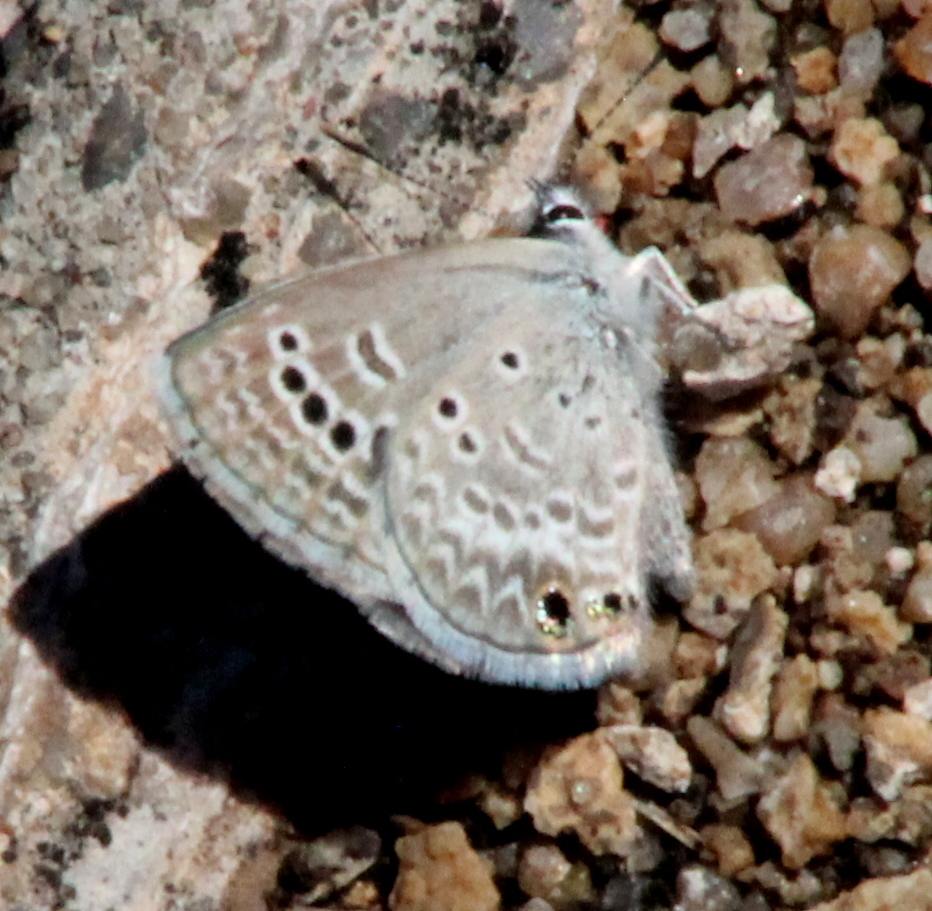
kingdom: Animalia
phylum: Arthropoda
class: Insecta
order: Lepidoptera
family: Lycaenidae
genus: Echinargus
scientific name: Echinargus isola
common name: Reakirt's blue
